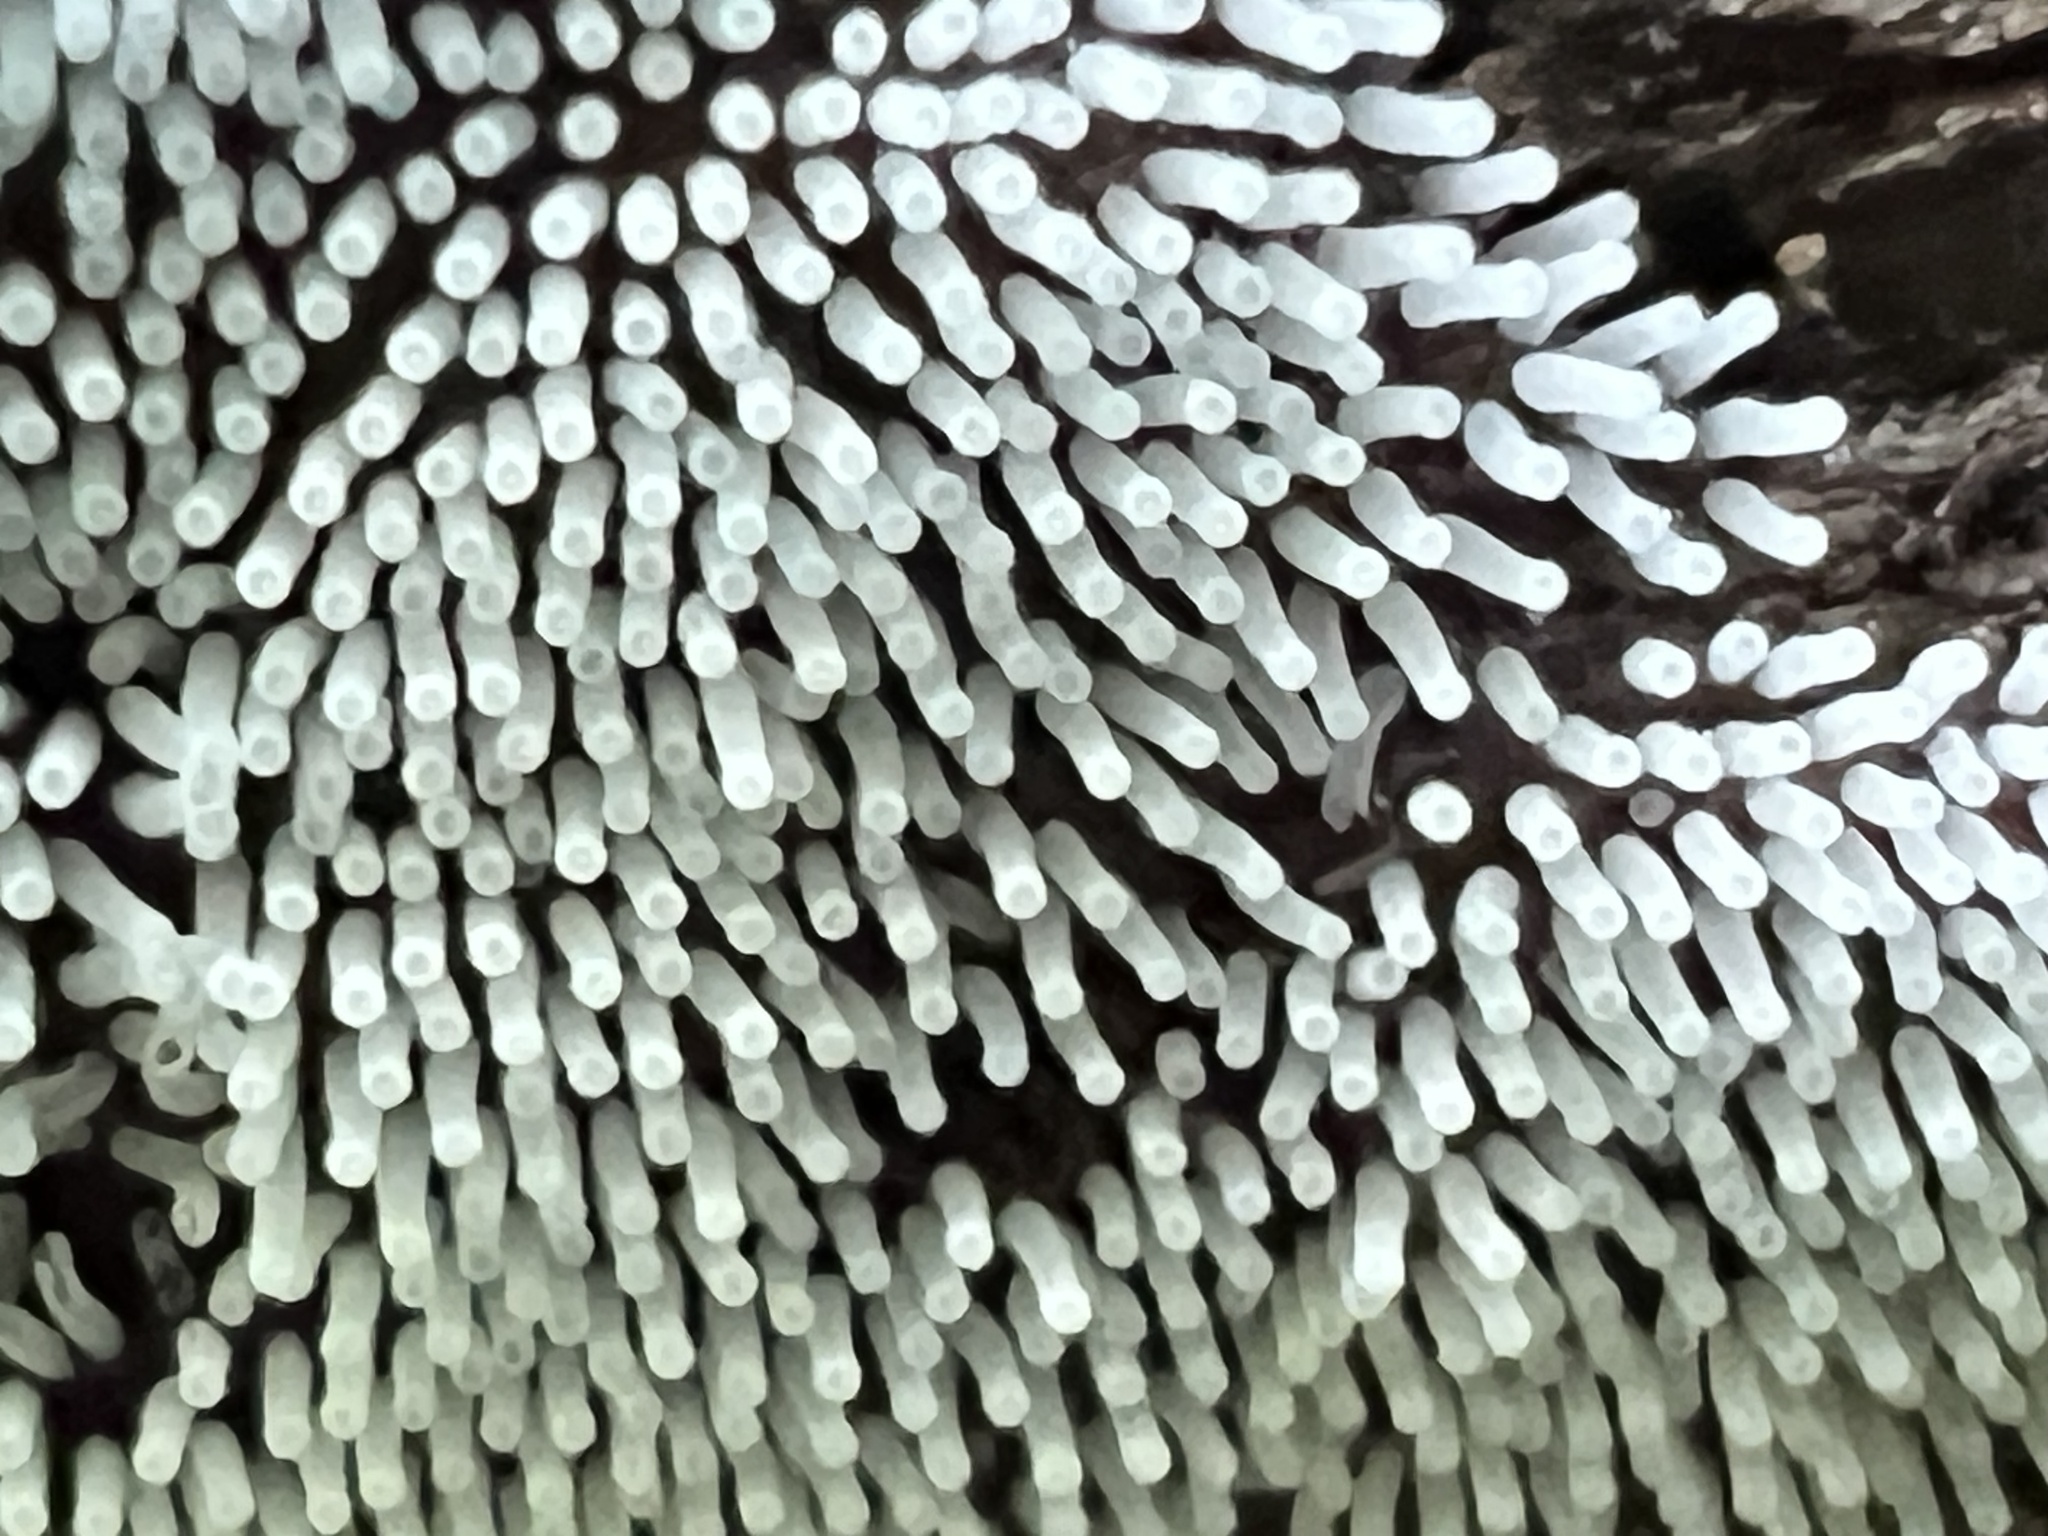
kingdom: Protozoa
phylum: Mycetozoa
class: Protosteliomycetes
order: Ceratiomyxales
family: Ceratiomyxaceae
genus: Ceratiomyxa
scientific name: Ceratiomyxa fruticulosa
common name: Honeycomb coral slime mold
